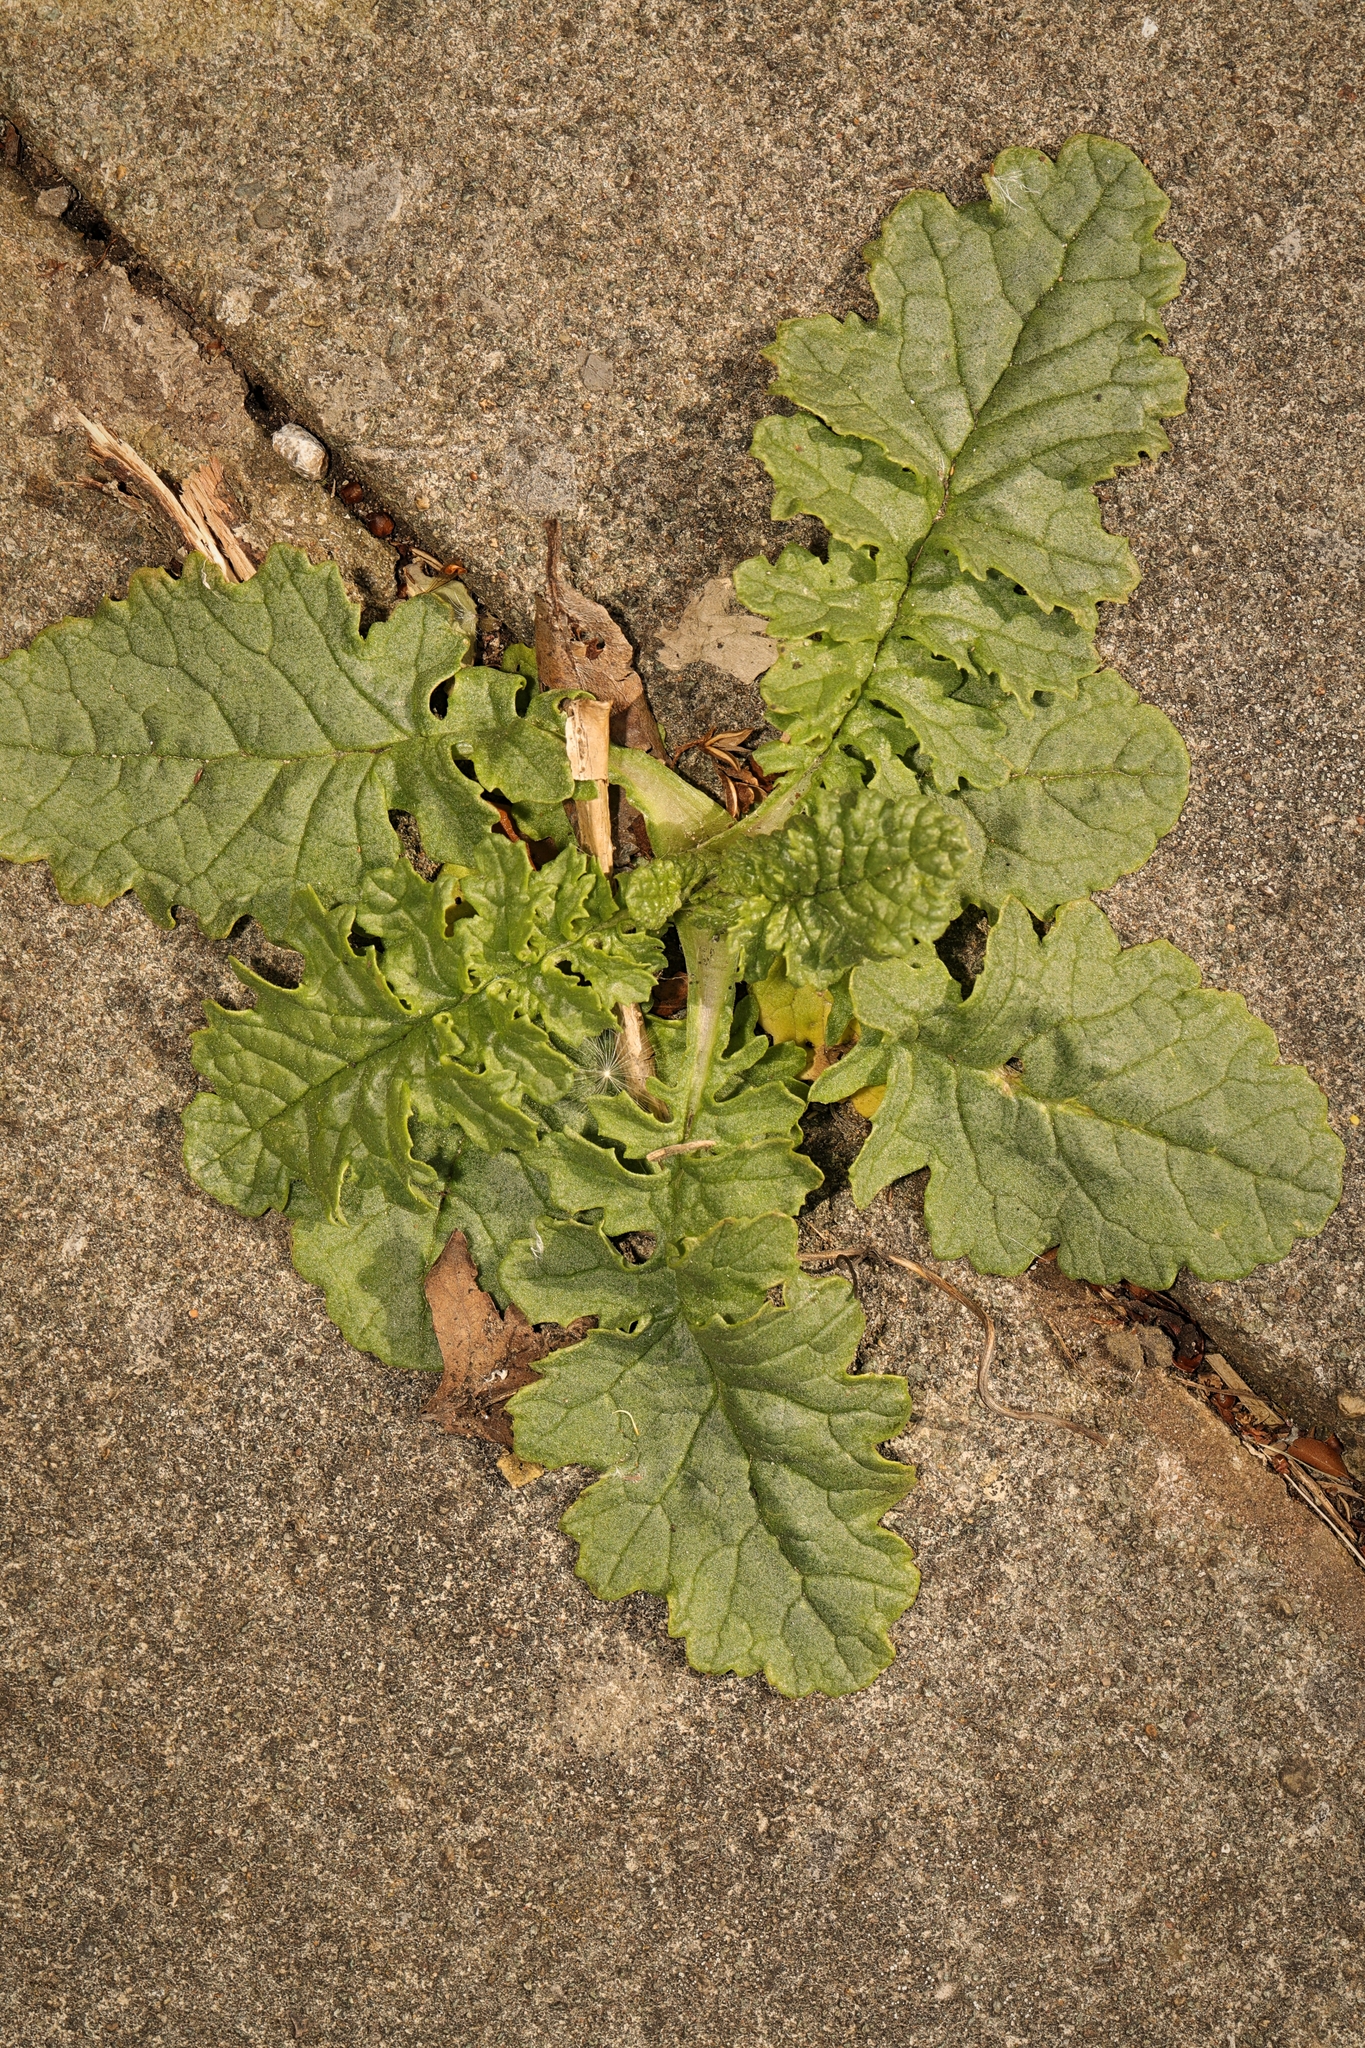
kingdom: Plantae
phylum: Tracheophyta
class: Magnoliopsida
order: Asterales
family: Asteraceae
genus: Jacobaea
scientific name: Jacobaea vulgaris
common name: Stinking willie
